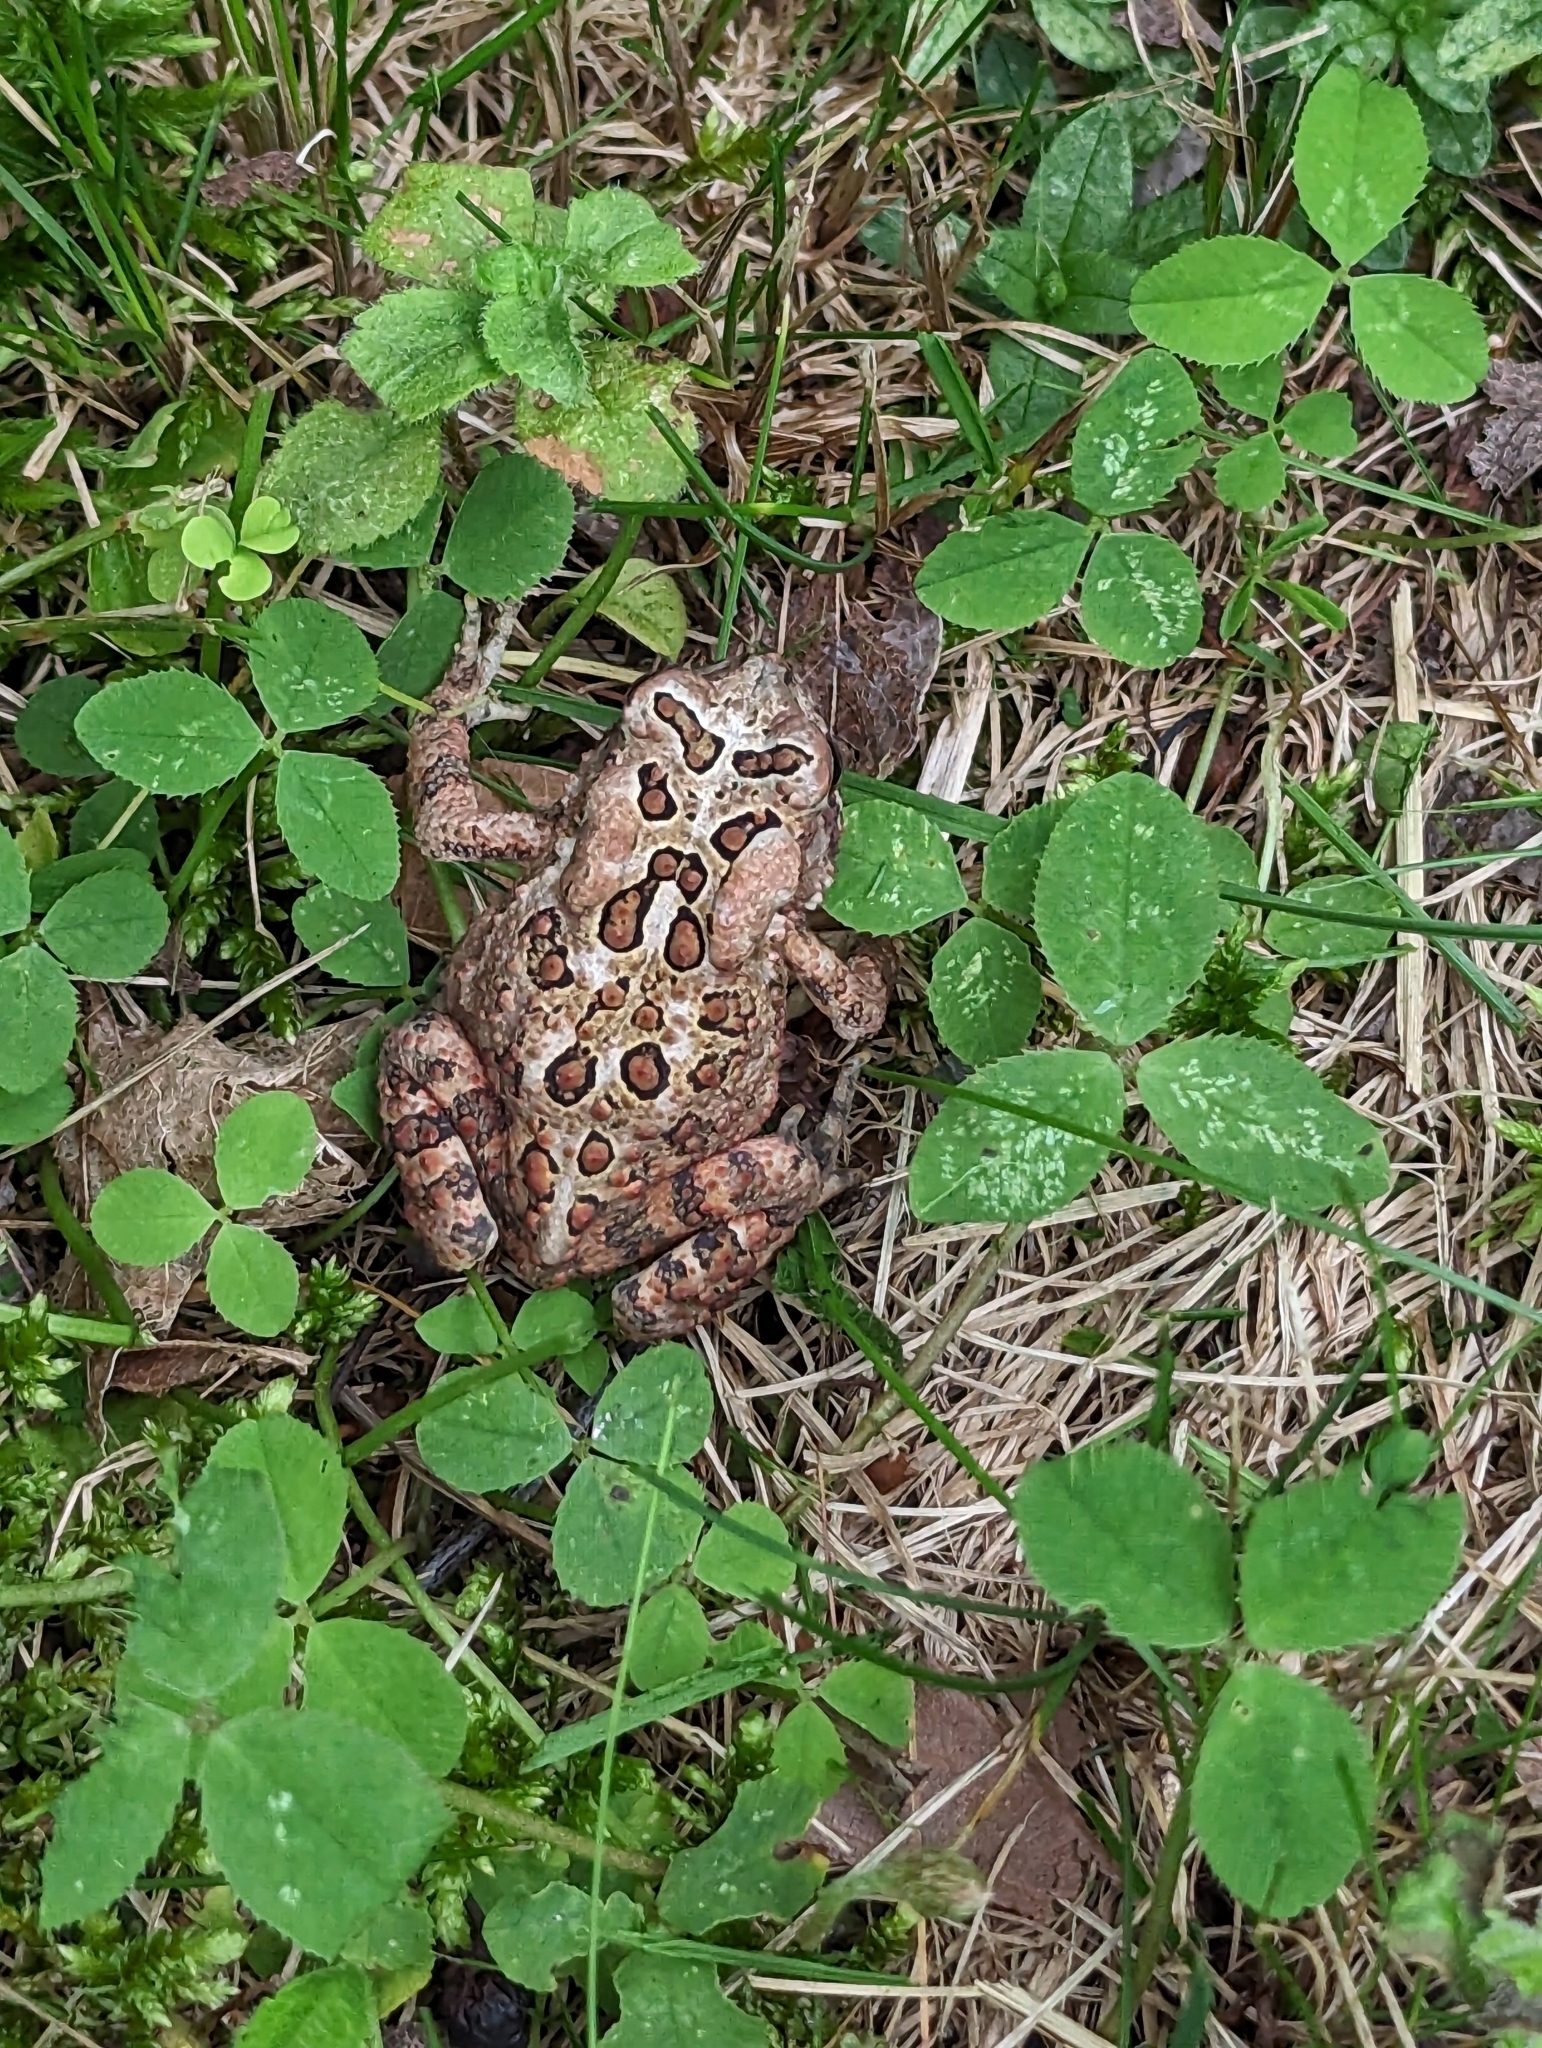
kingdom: Plantae
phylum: Tracheophyta
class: Magnoliopsida
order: Fabales
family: Fabaceae
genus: Trifolium
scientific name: Trifolium repens
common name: White clover
